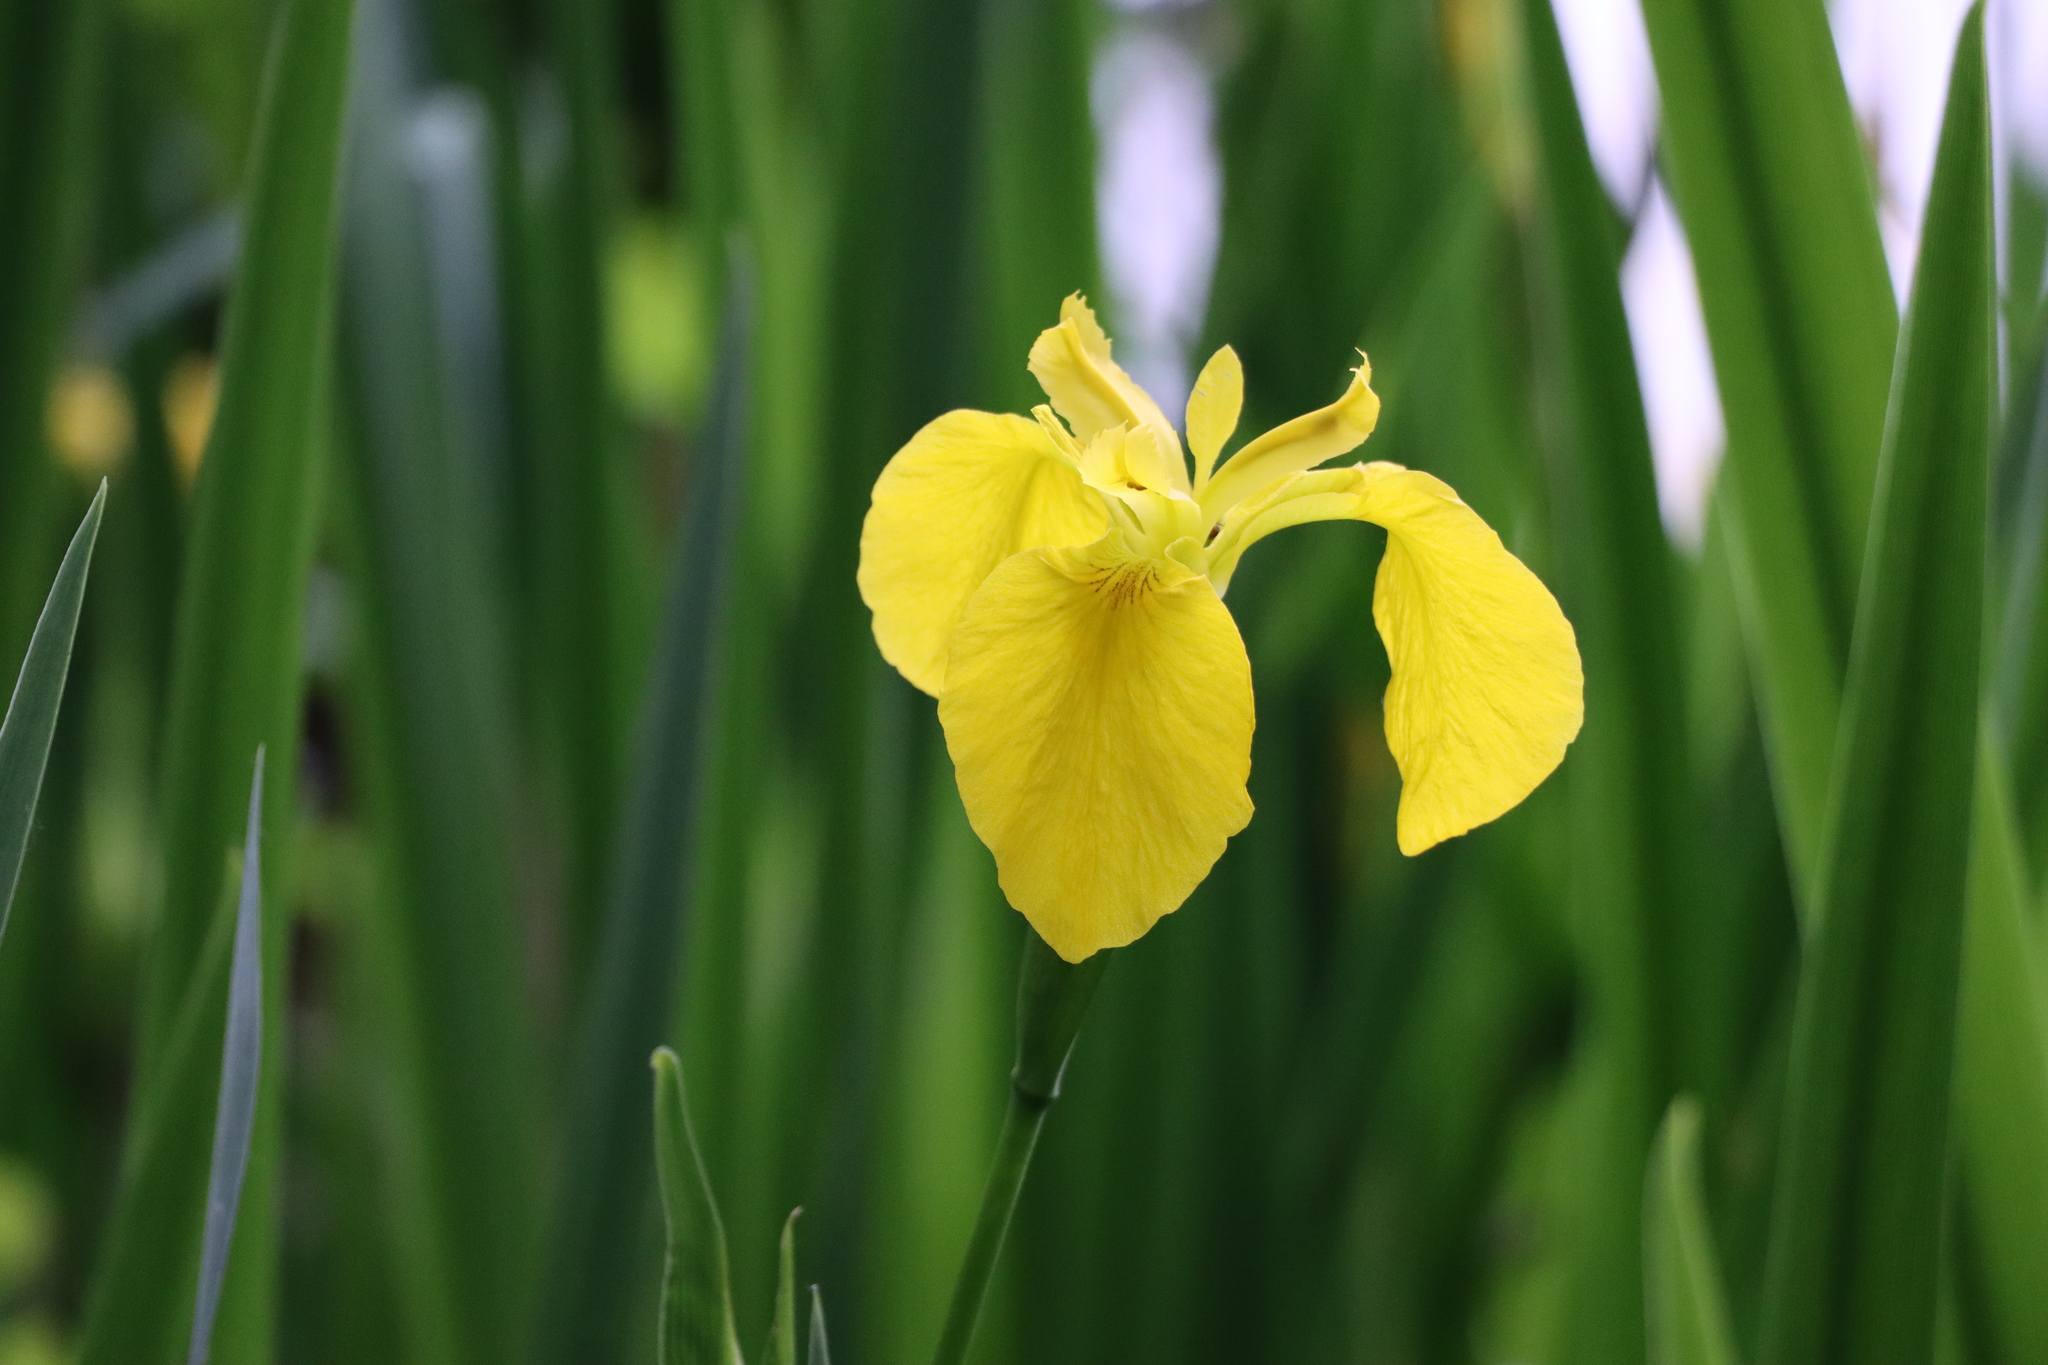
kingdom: Plantae
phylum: Tracheophyta
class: Liliopsida
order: Asparagales
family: Iridaceae
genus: Iris
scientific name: Iris pseudacorus
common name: Yellow flag
